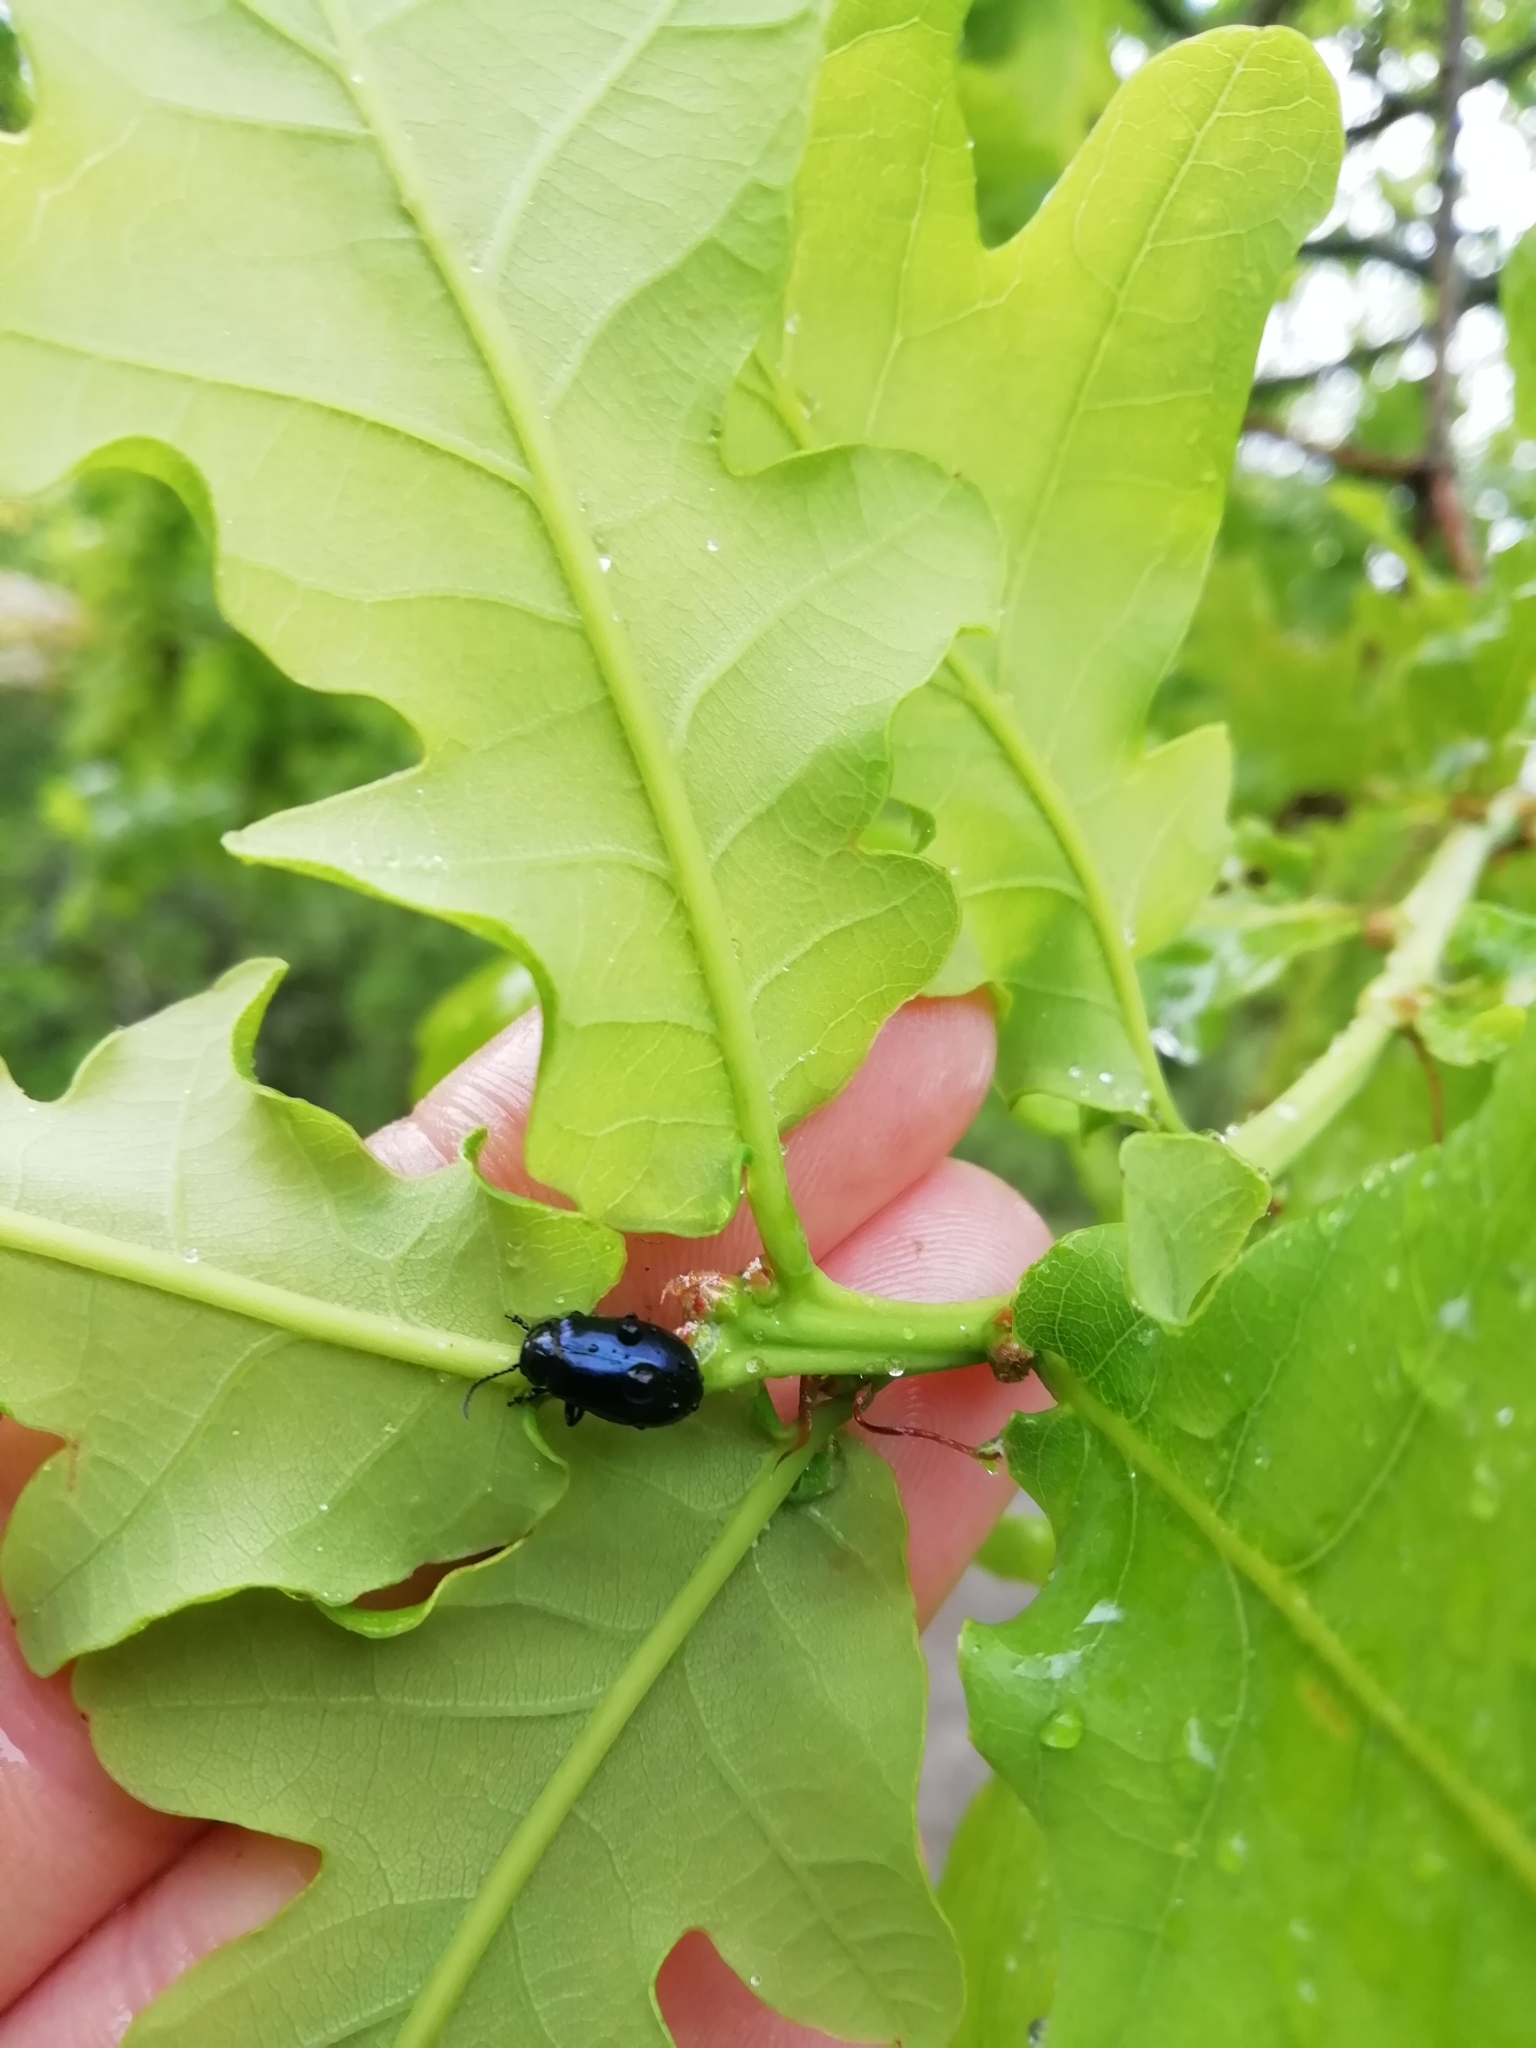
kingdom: Animalia
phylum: Arthropoda
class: Insecta
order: Coleoptera
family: Chrysomelidae
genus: Agelastica
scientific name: Agelastica alni
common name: Alder leaf beetle
